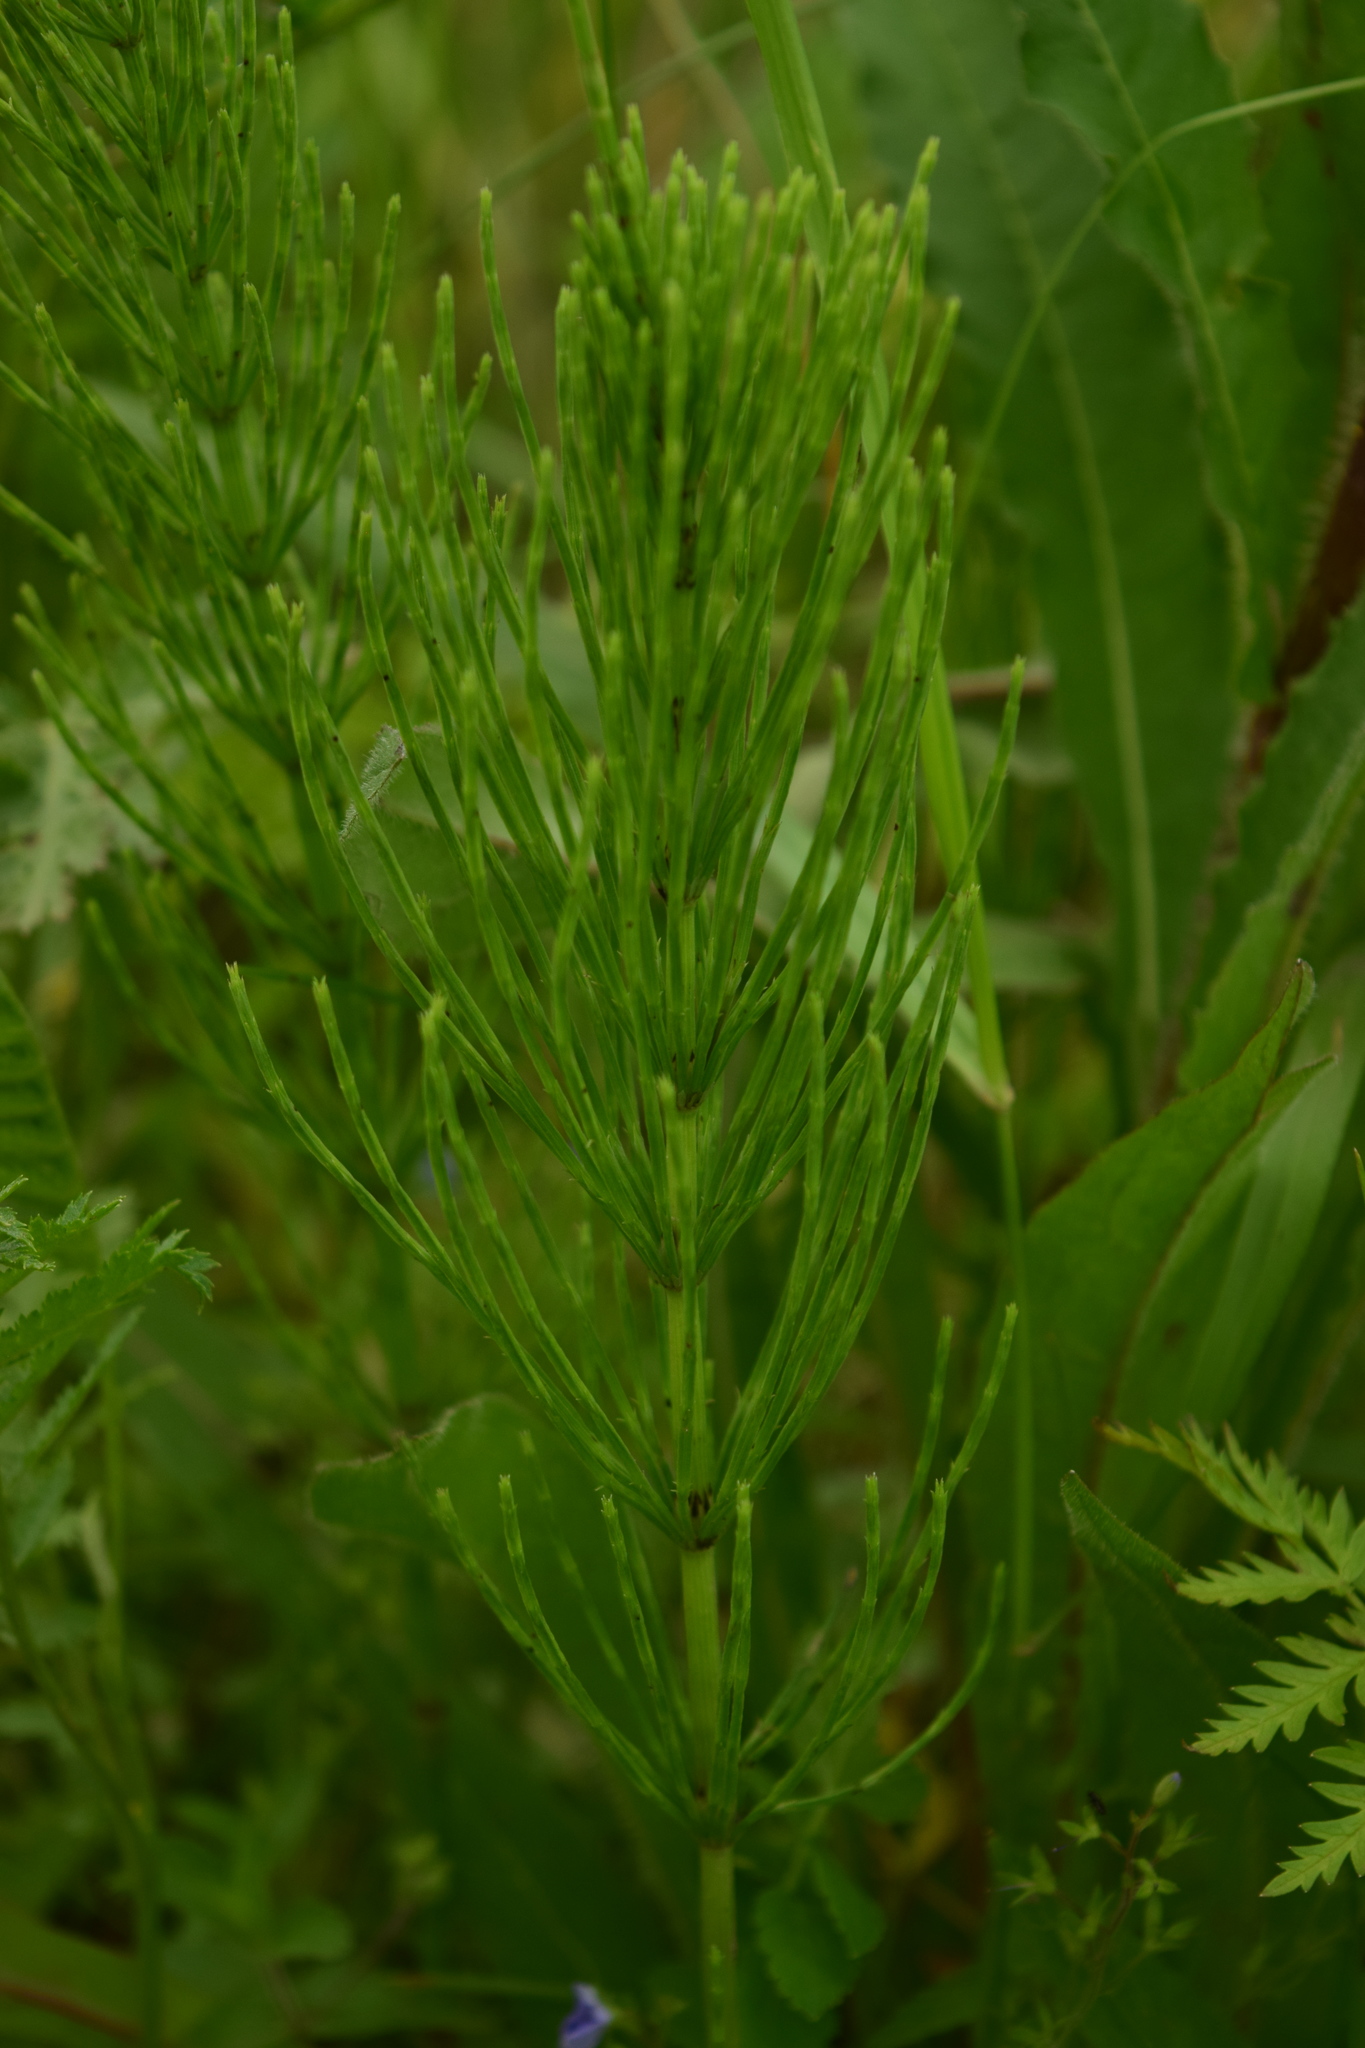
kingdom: Plantae
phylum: Tracheophyta
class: Polypodiopsida
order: Equisetales
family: Equisetaceae
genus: Equisetum
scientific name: Equisetum arvense
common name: Field horsetail
